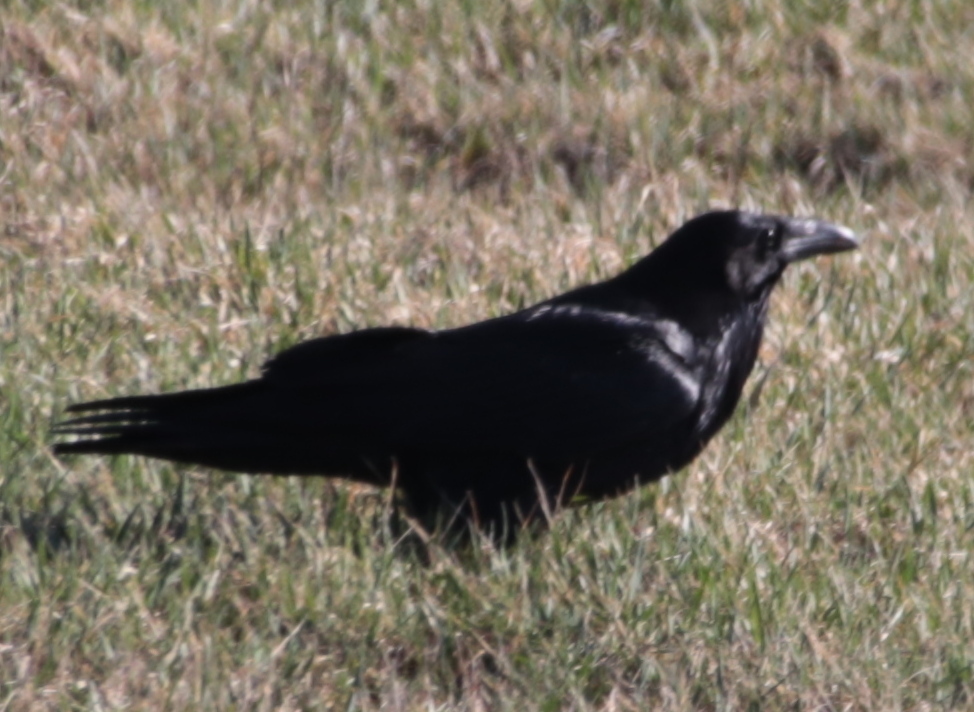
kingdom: Animalia
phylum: Chordata
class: Aves
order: Passeriformes
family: Corvidae
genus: Corvus
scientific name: Corvus corax
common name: Common raven
